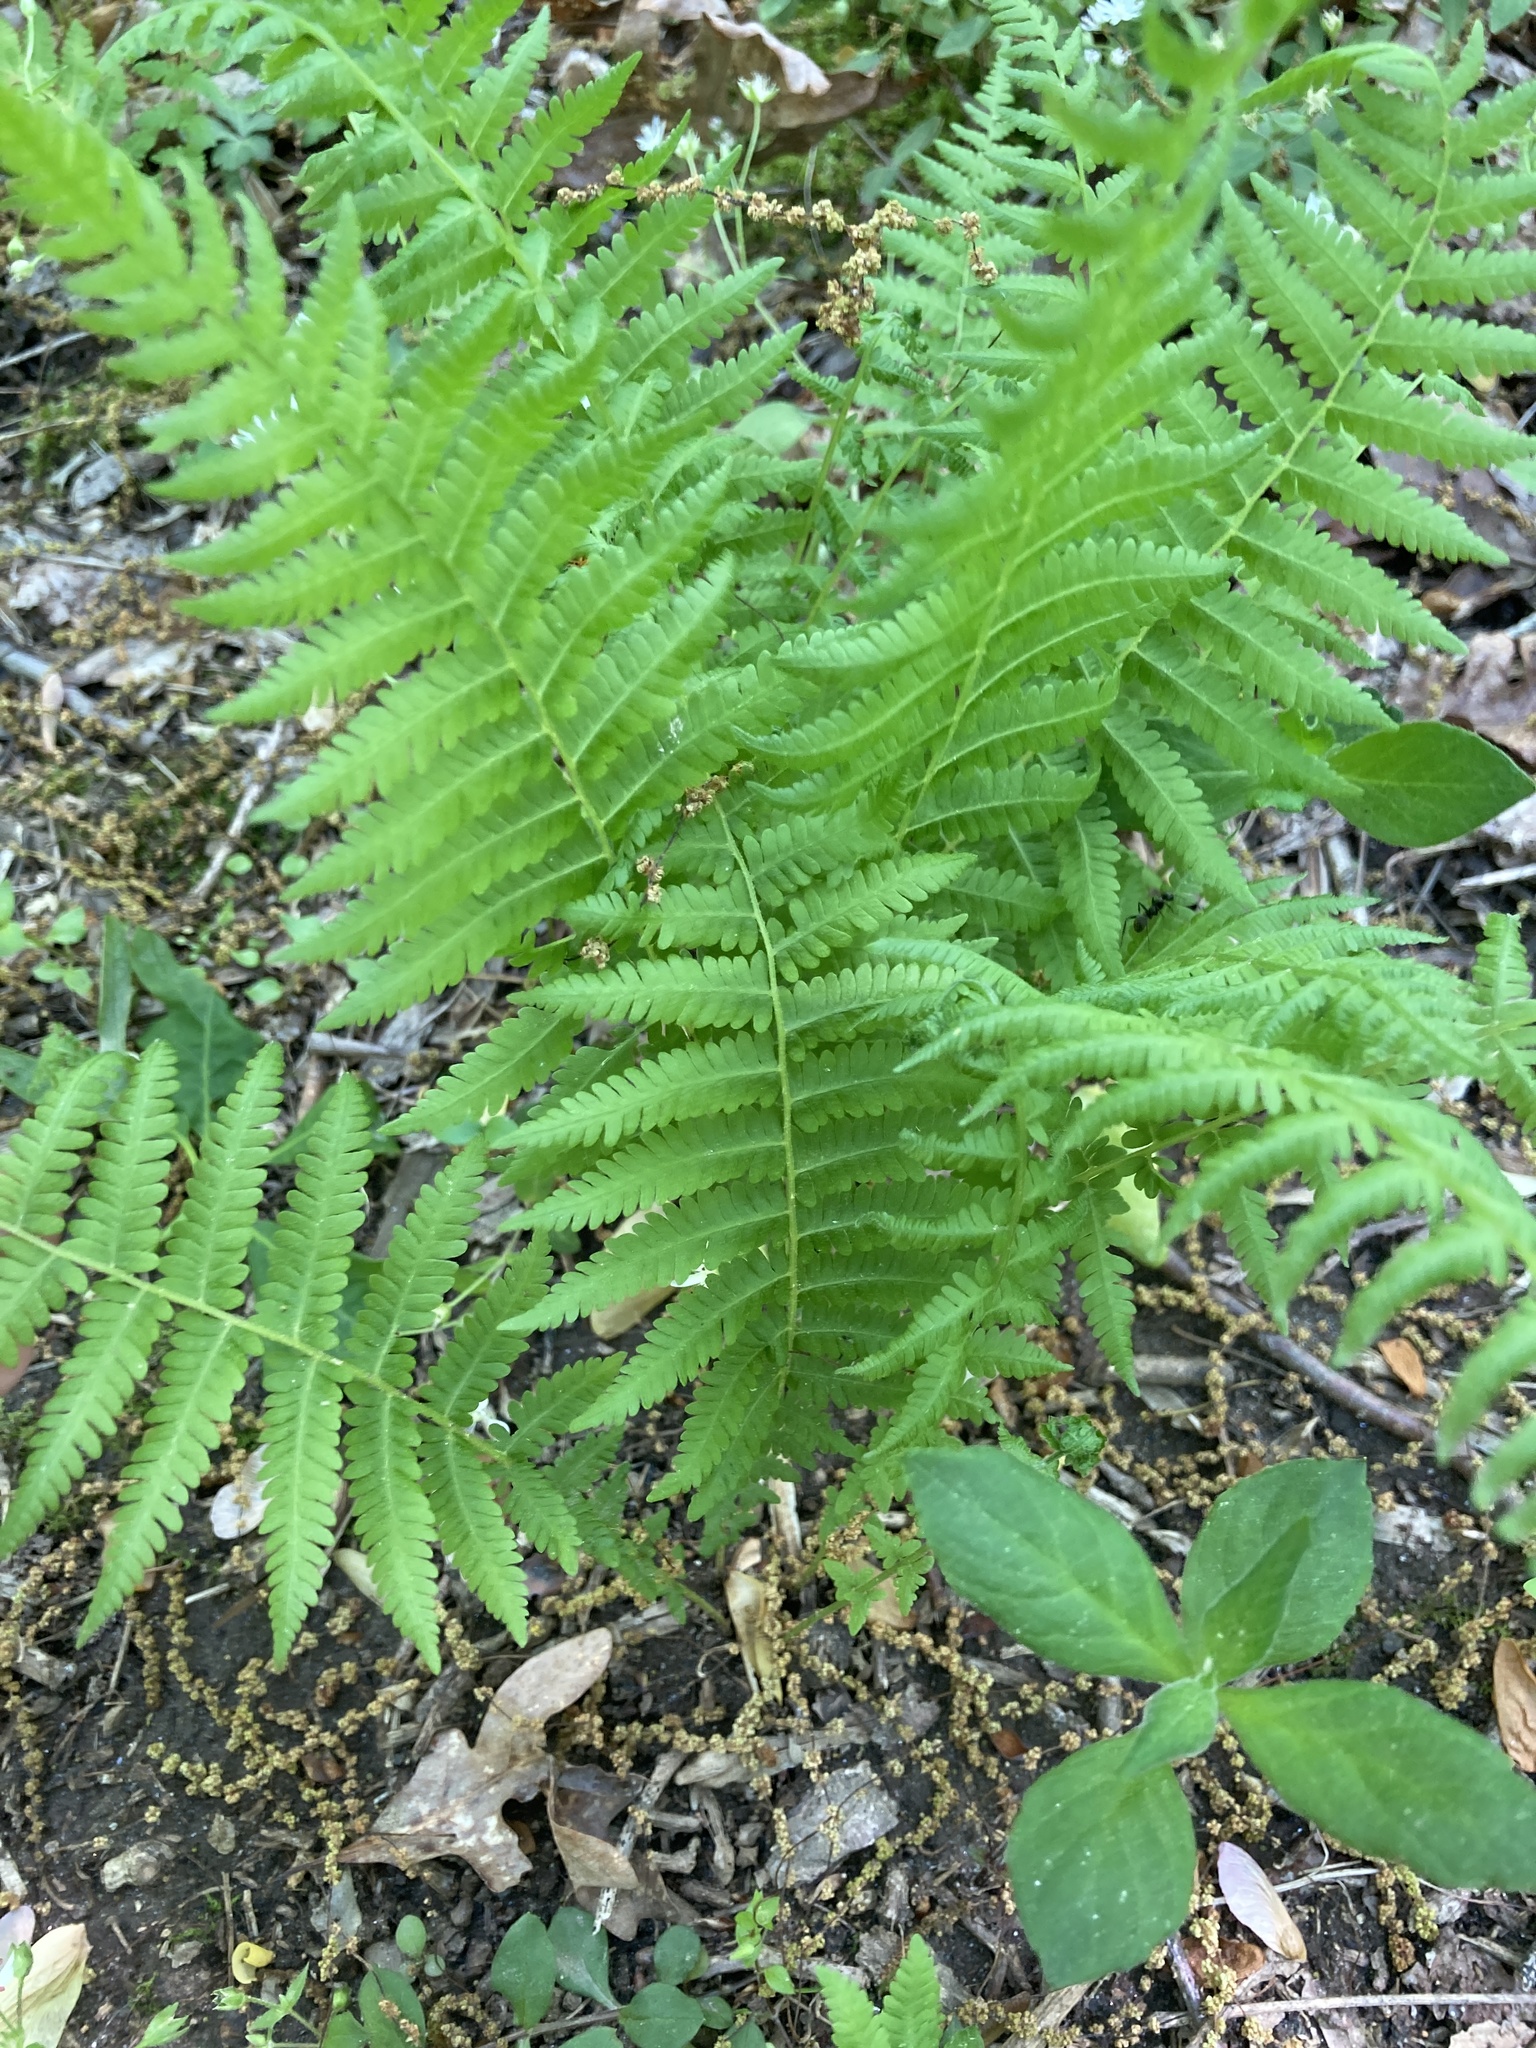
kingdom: Plantae
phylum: Tracheophyta
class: Polypodiopsida
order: Polypodiales
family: Thelypteridaceae
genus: Amauropelta
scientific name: Amauropelta noveboracensis
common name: New york fern
